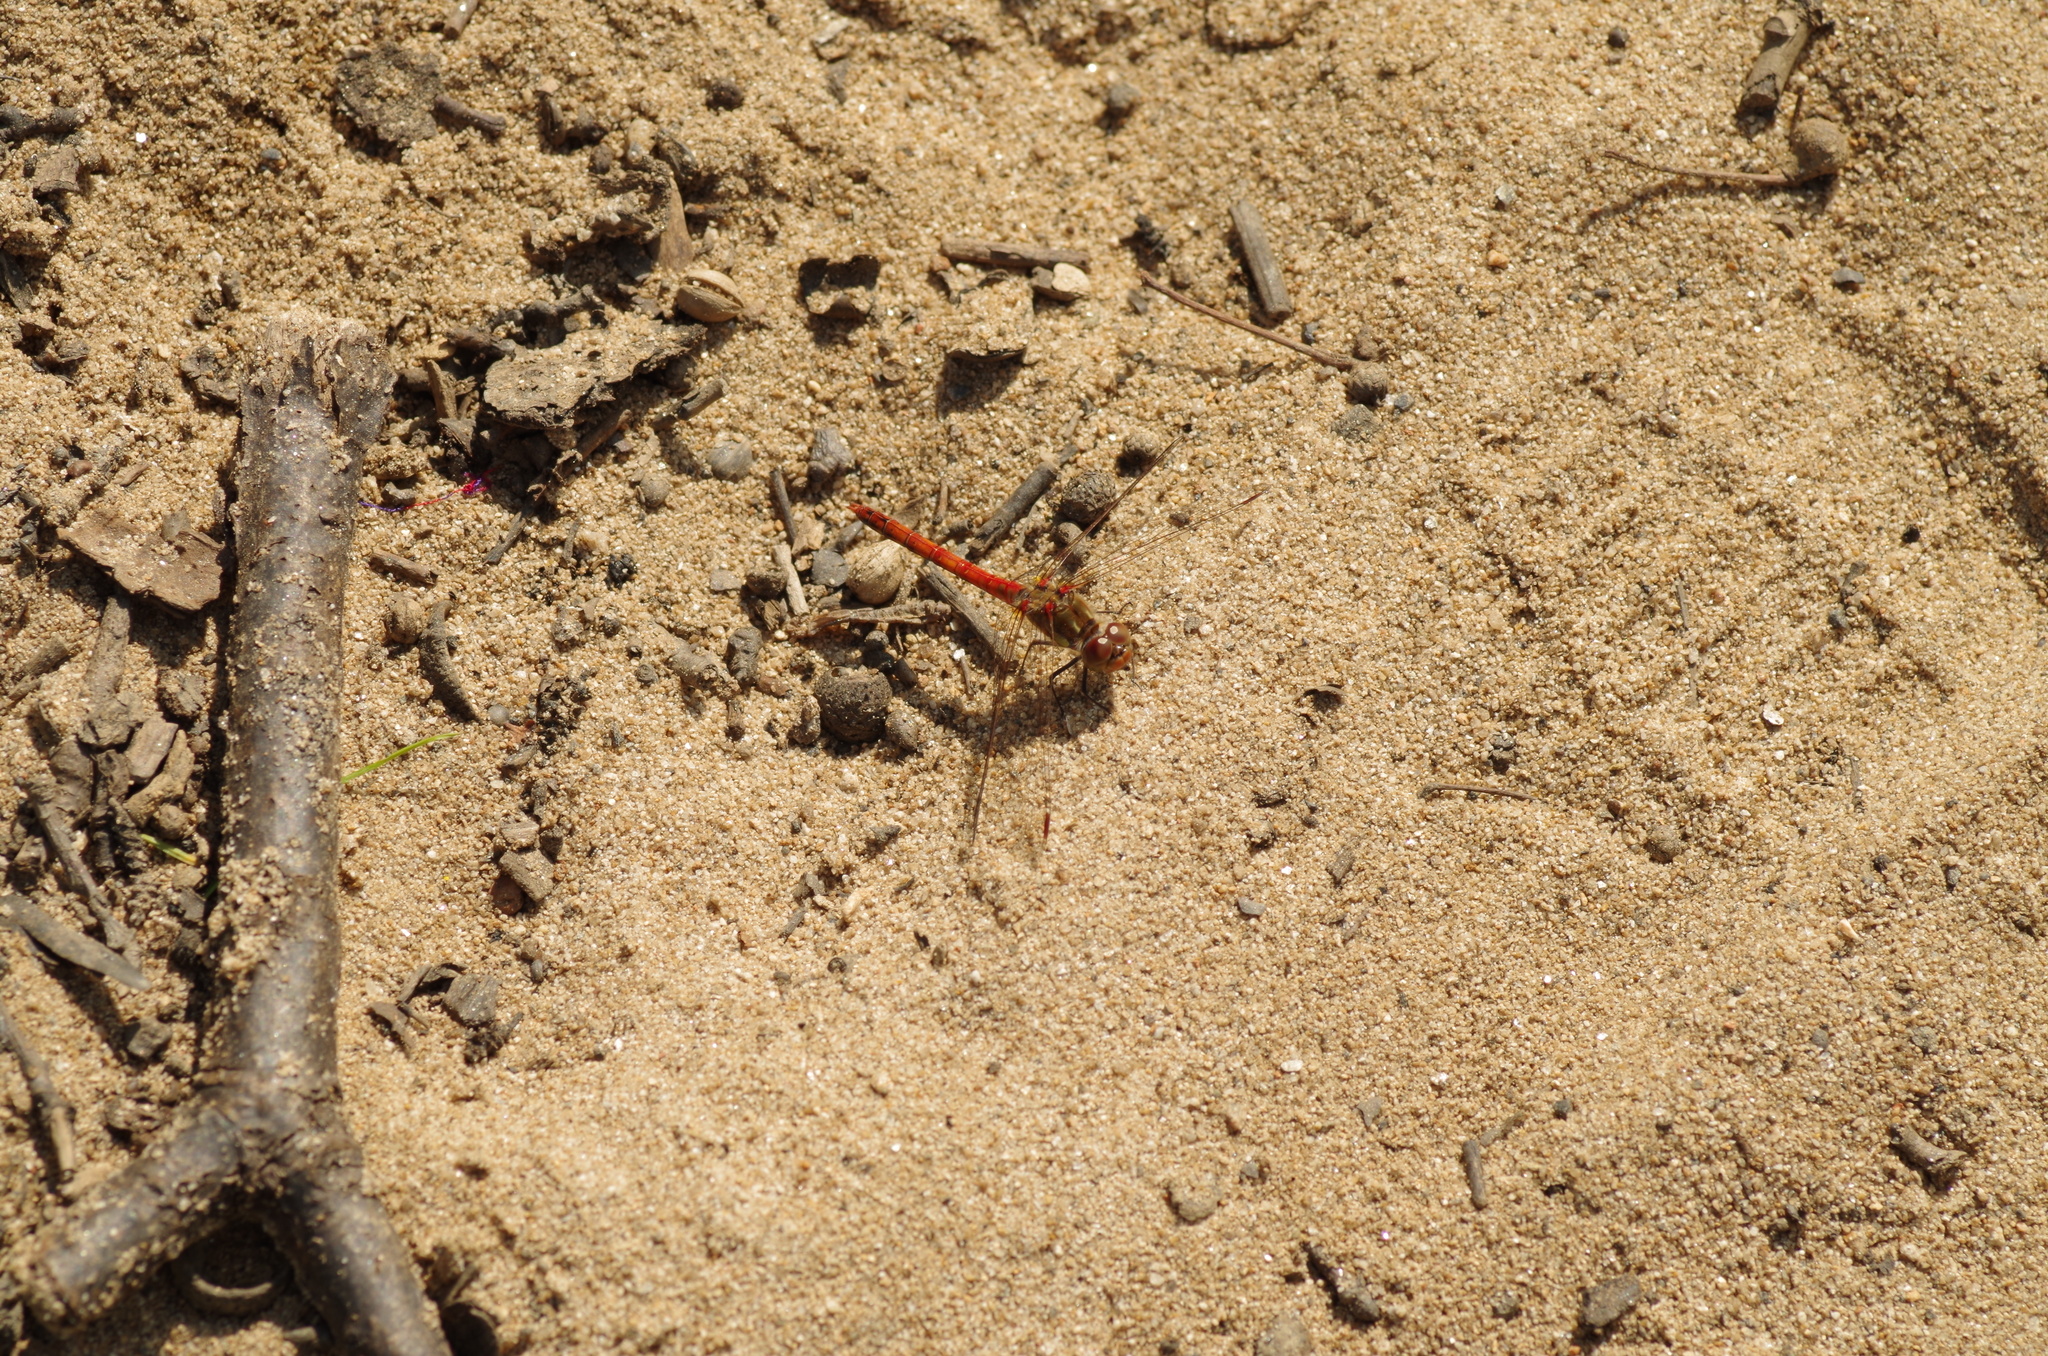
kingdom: Animalia
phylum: Arthropoda
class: Insecta
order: Odonata
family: Libellulidae
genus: Sympetrum
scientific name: Sympetrum striolatum
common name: Common darter
